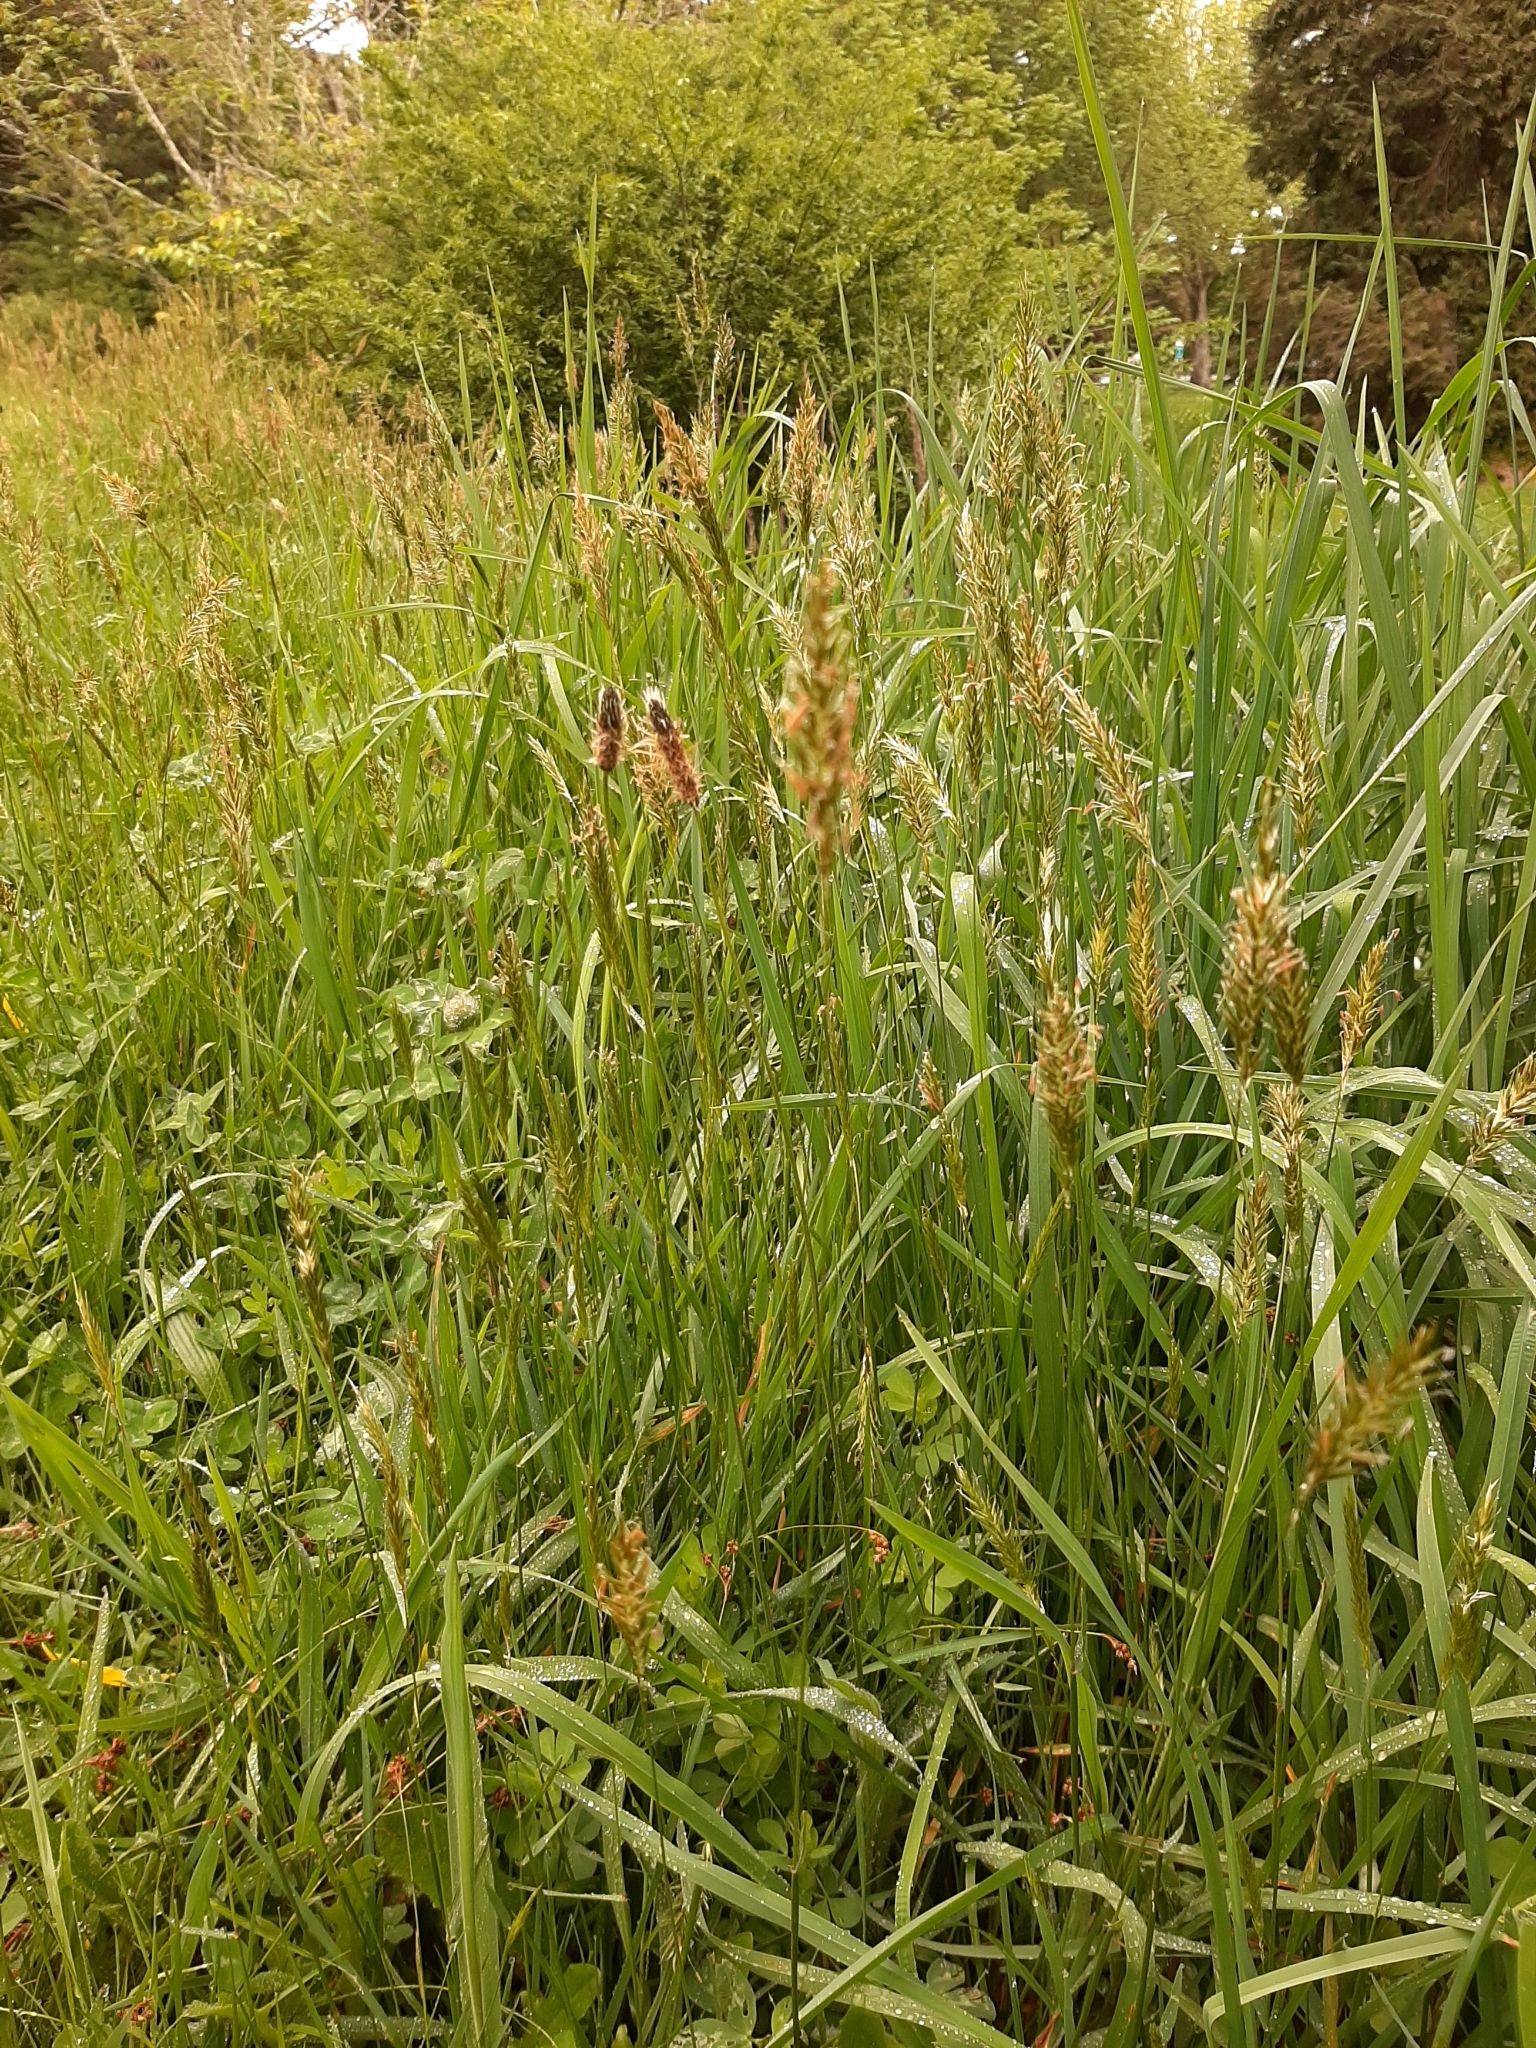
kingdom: Plantae
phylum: Tracheophyta
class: Liliopsida
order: Poales
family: Poaceae
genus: Anthoxanthum
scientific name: Anthoxanthum odoratum
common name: Sweet vernalgrass
